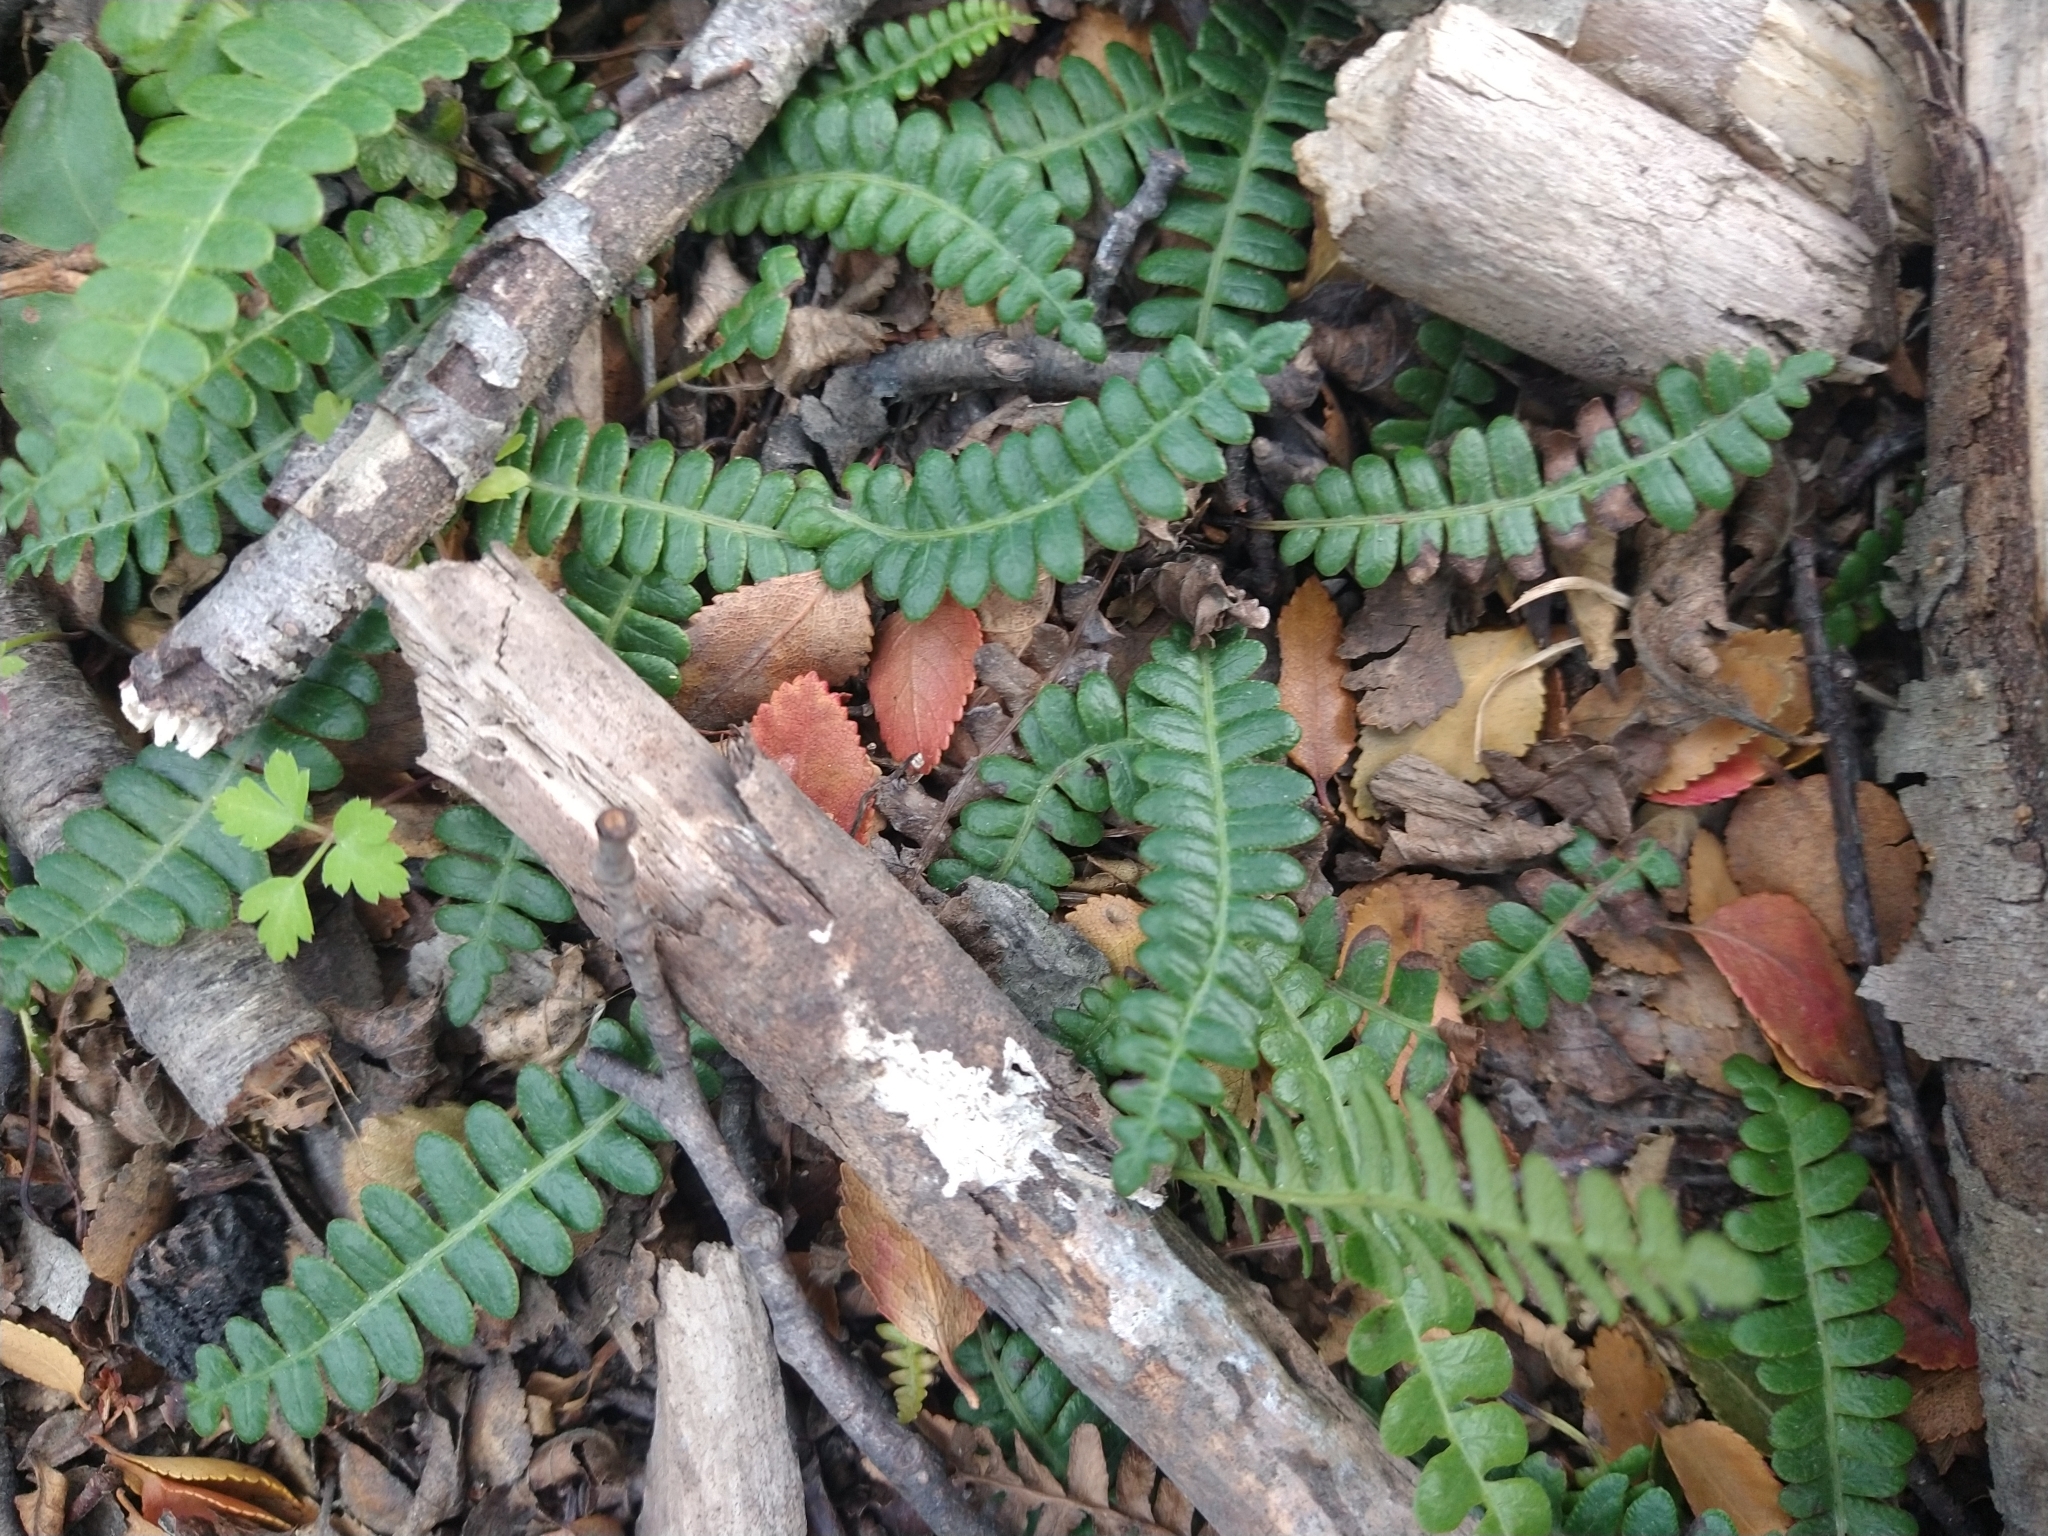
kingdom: Plantae
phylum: Tracheophyta
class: Polypodiopsida
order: Polypodiales
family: Blechnaceae
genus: Austroblechnum
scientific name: Austroblechnum penna-marina
